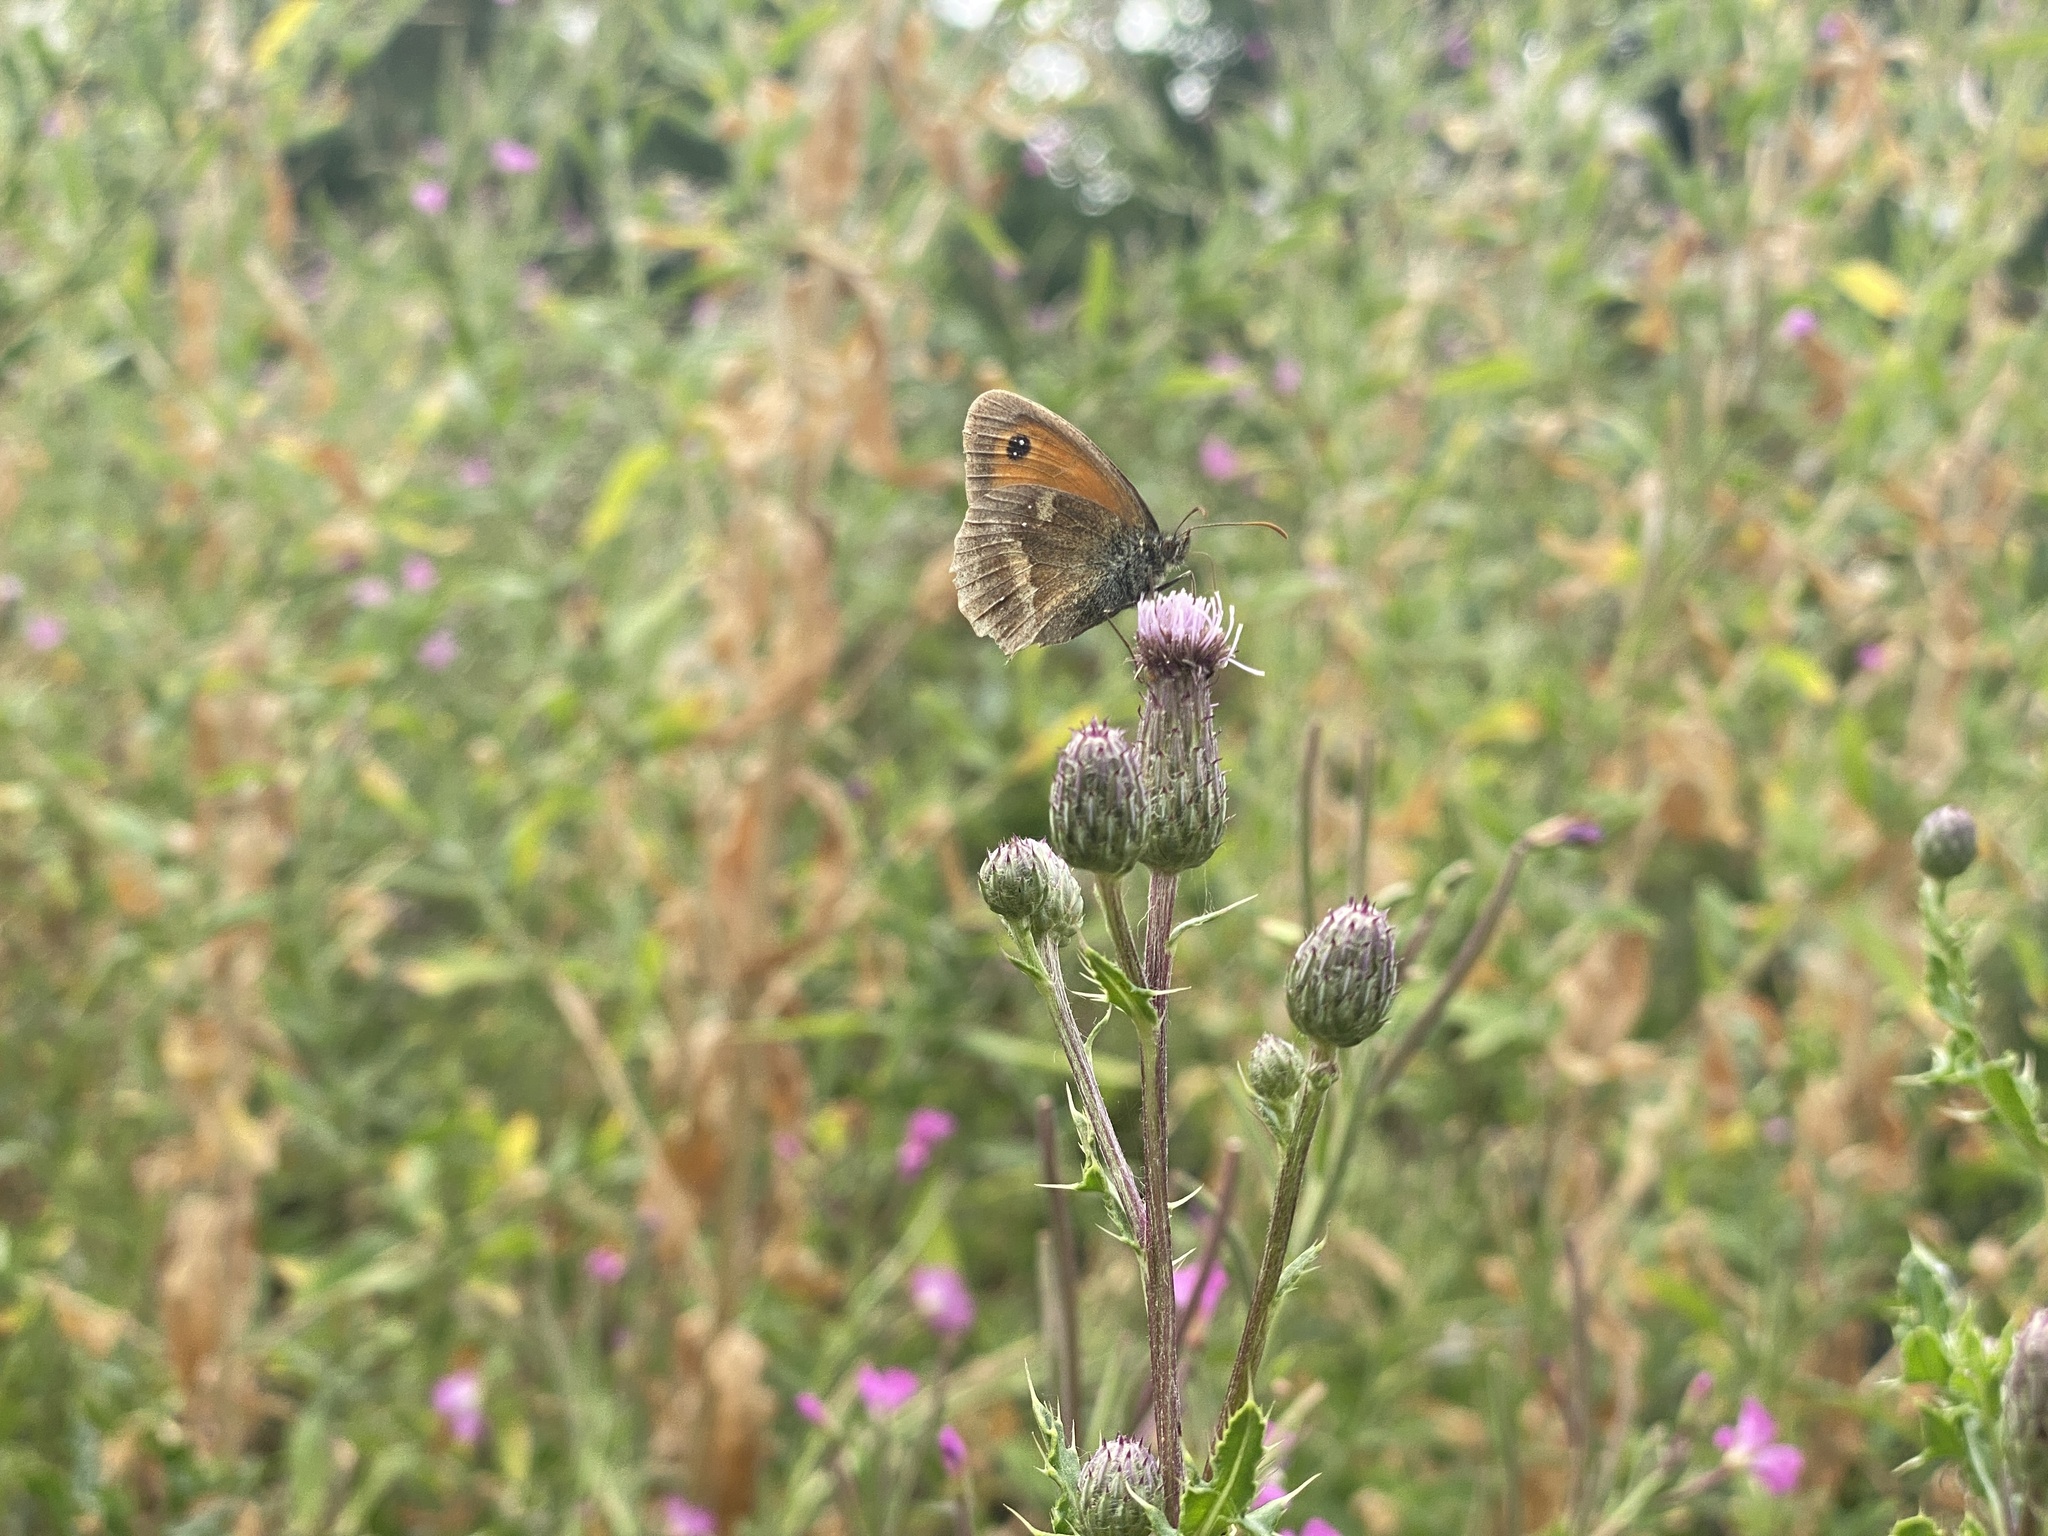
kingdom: Animalia
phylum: Arthropoda
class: Insecta
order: Lepidoptera
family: Nymphalidae
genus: Pyronia
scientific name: Pyronia tithonus
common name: Gatekeeper
